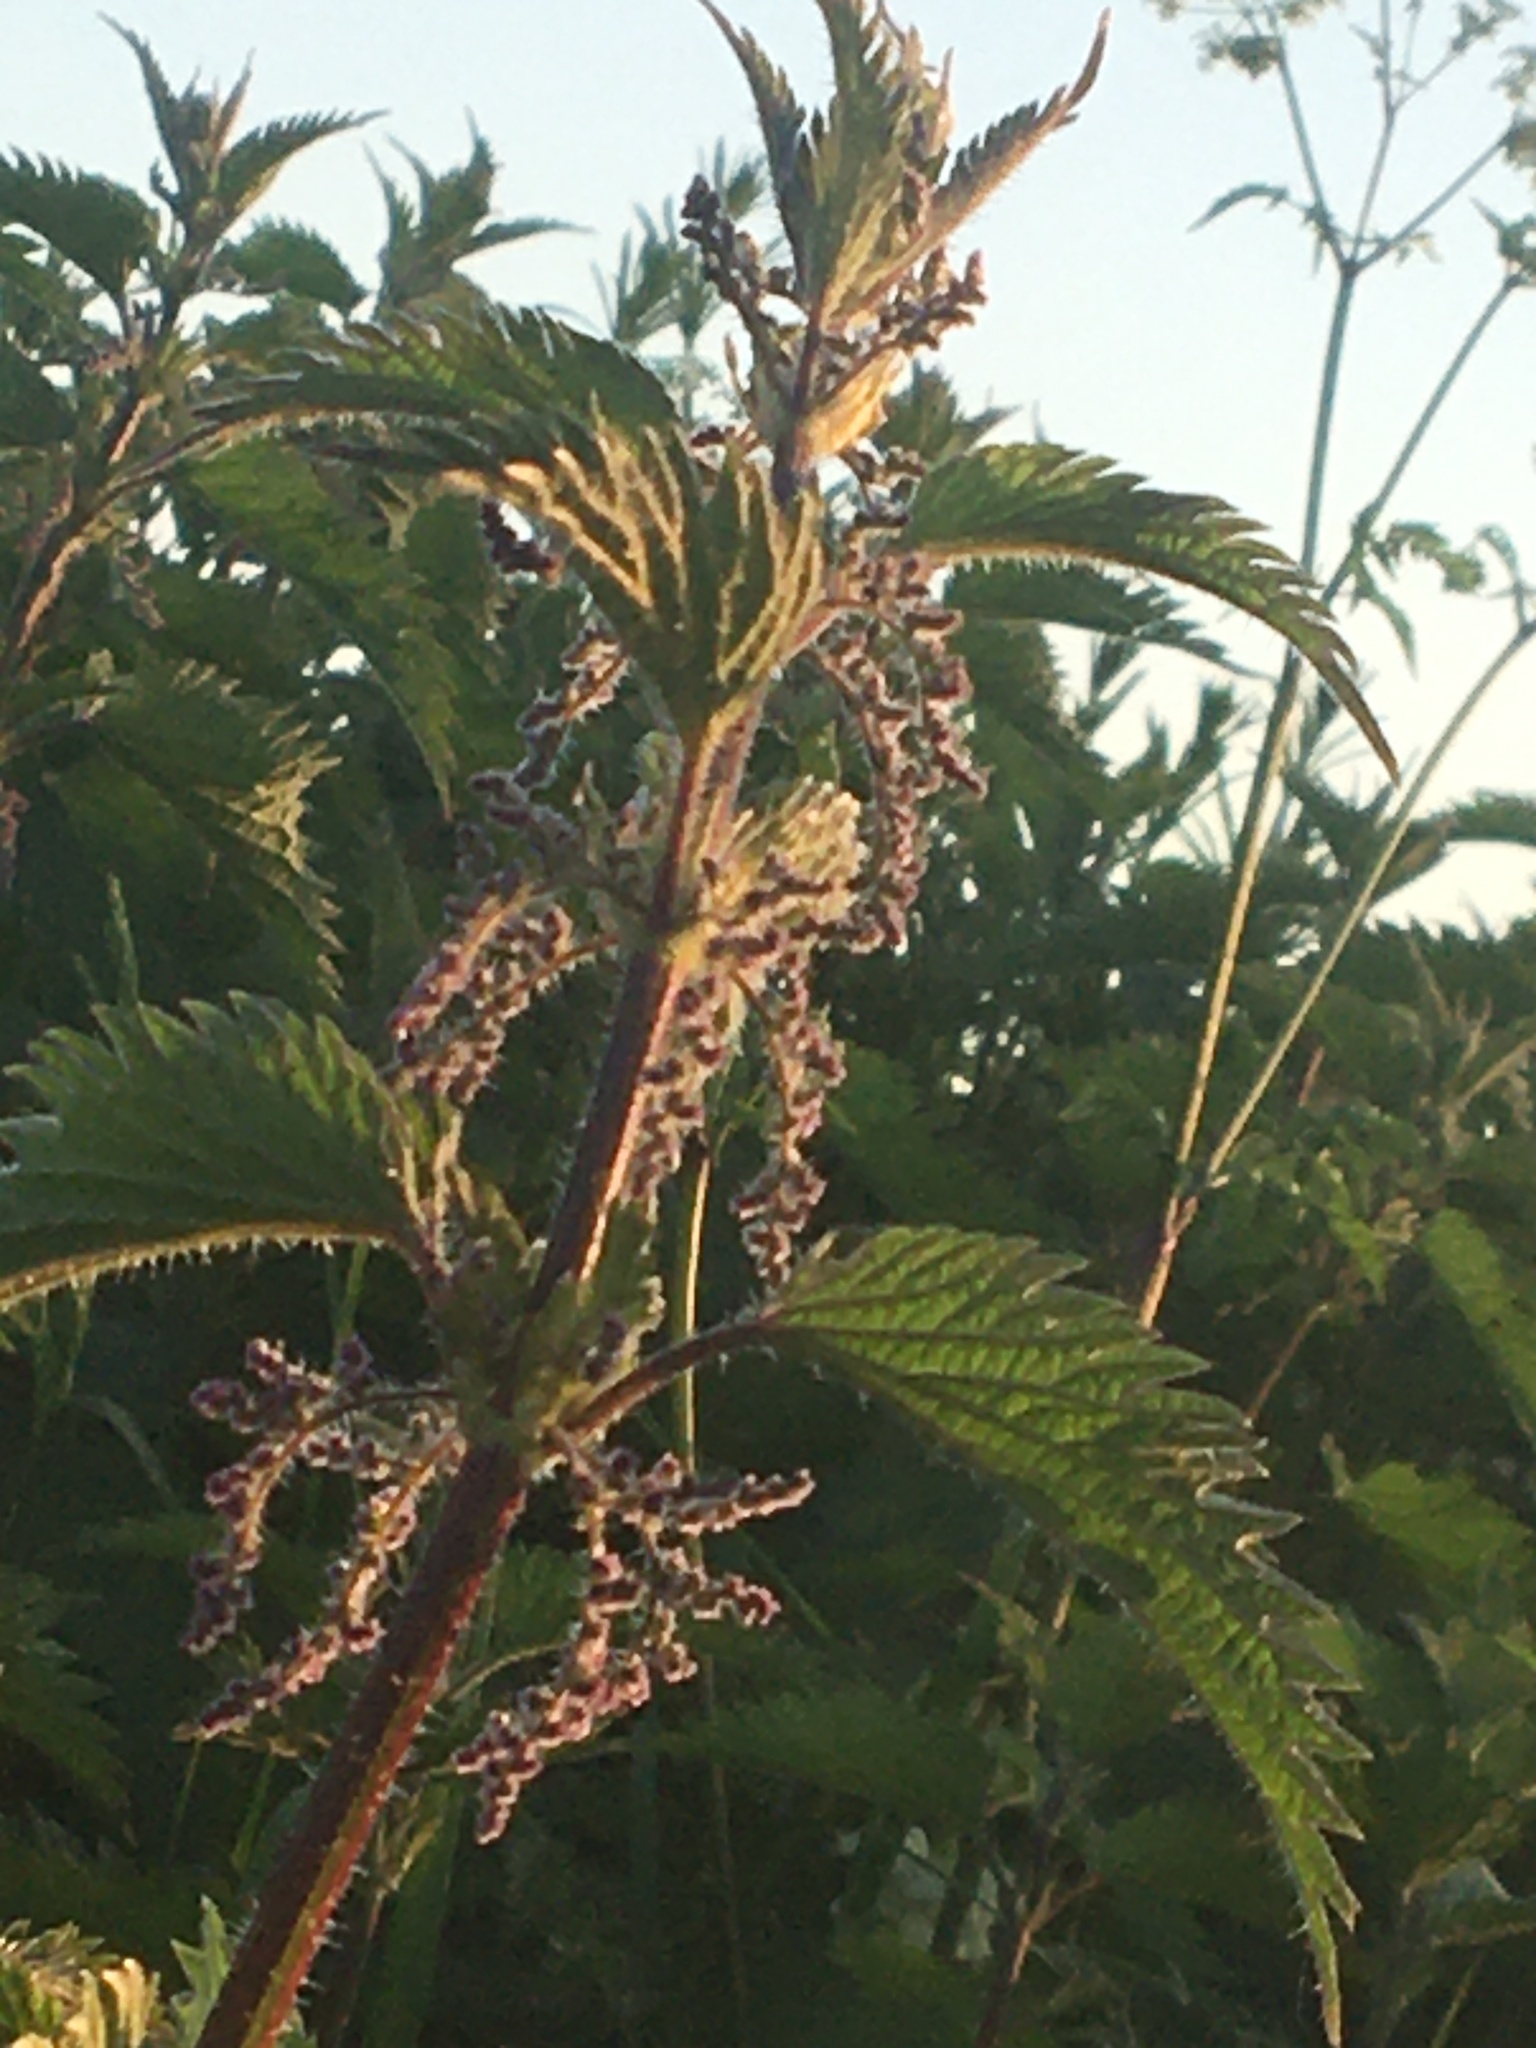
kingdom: Plantae
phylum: Tracheophyta
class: Magnoliopsida
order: Rosales
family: Urticaceae
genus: Urtica
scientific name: Urtica dioica
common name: Common nettle
